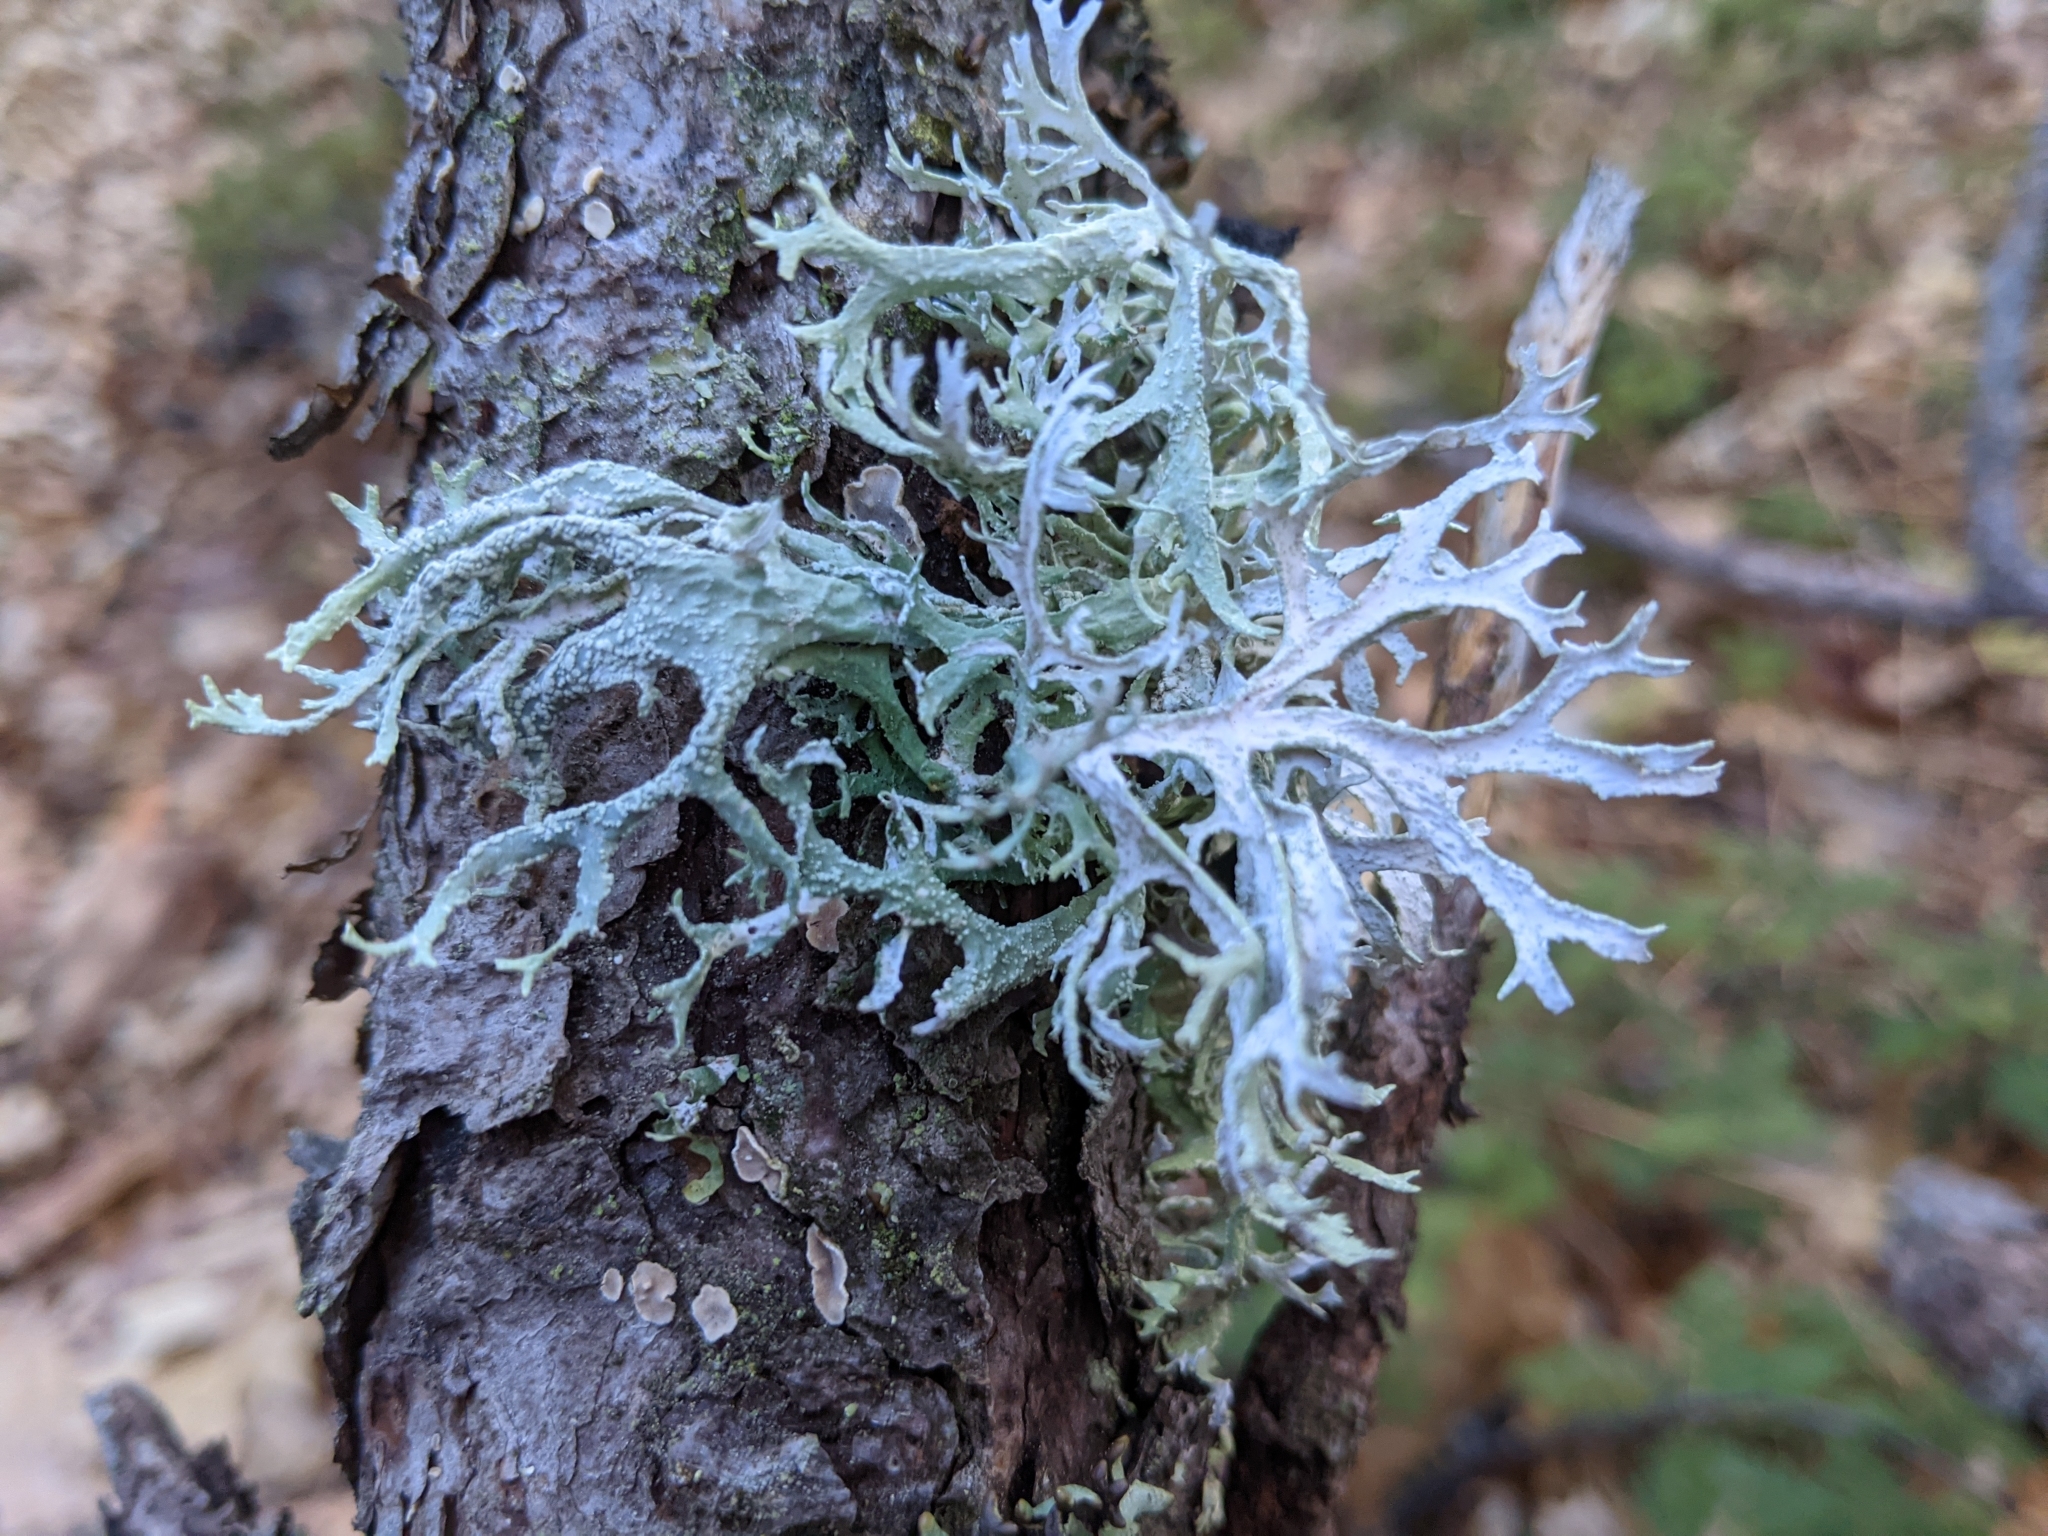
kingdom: Fungi
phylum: Ascomycota
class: Lecanoromycetes
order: Lecanorales
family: Parmeliaceae
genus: Evernia
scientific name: Evernia prunastri
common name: Oak moss
